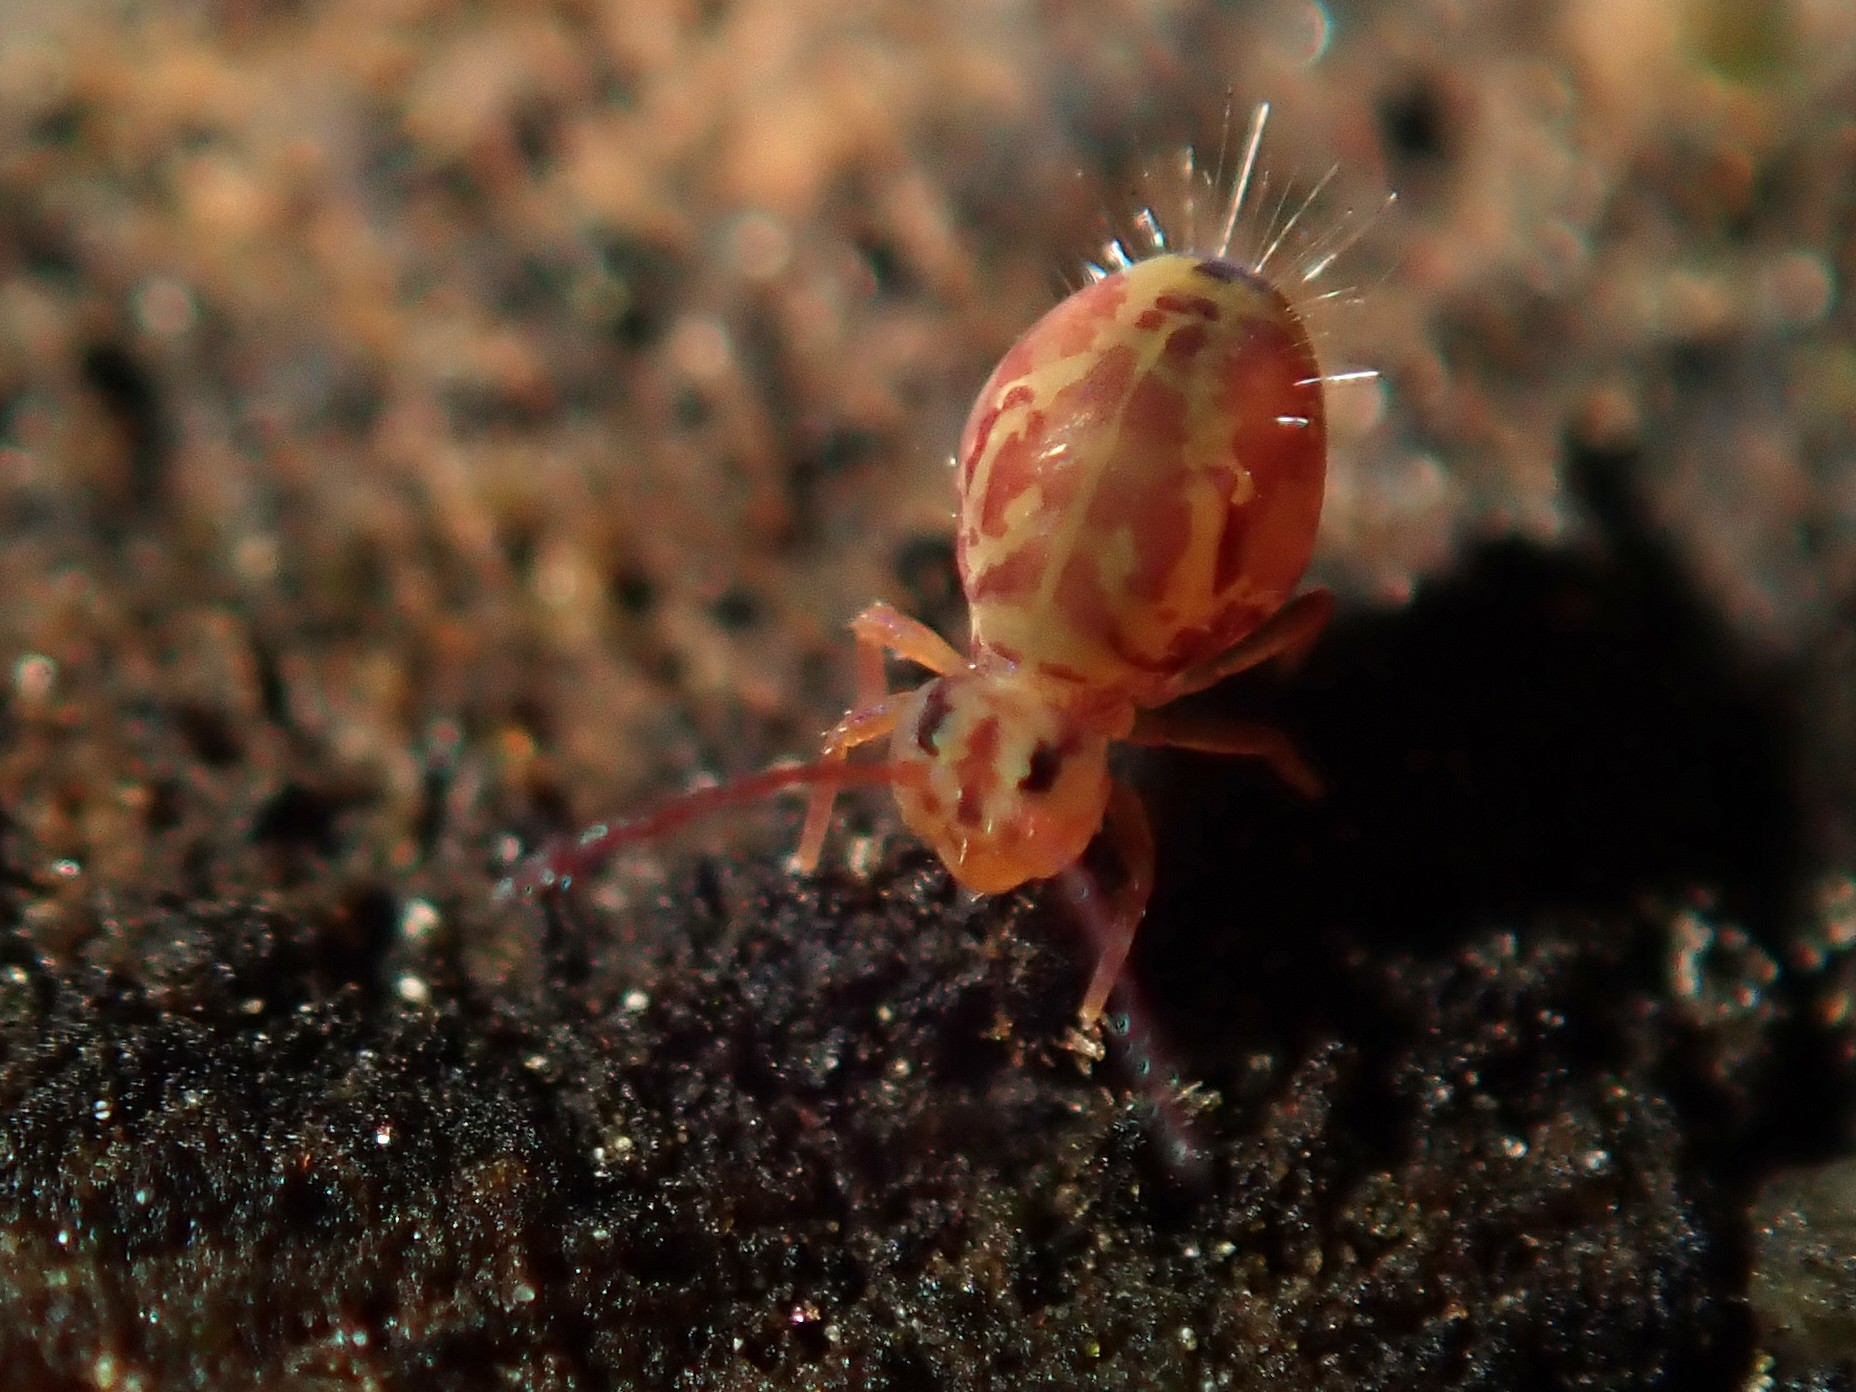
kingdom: Animalia
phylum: Arthropoda
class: Collembola
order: Symphypleona
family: Dicyrtomidae
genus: Dicyrtomina
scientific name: Dicyrtomina ornata
